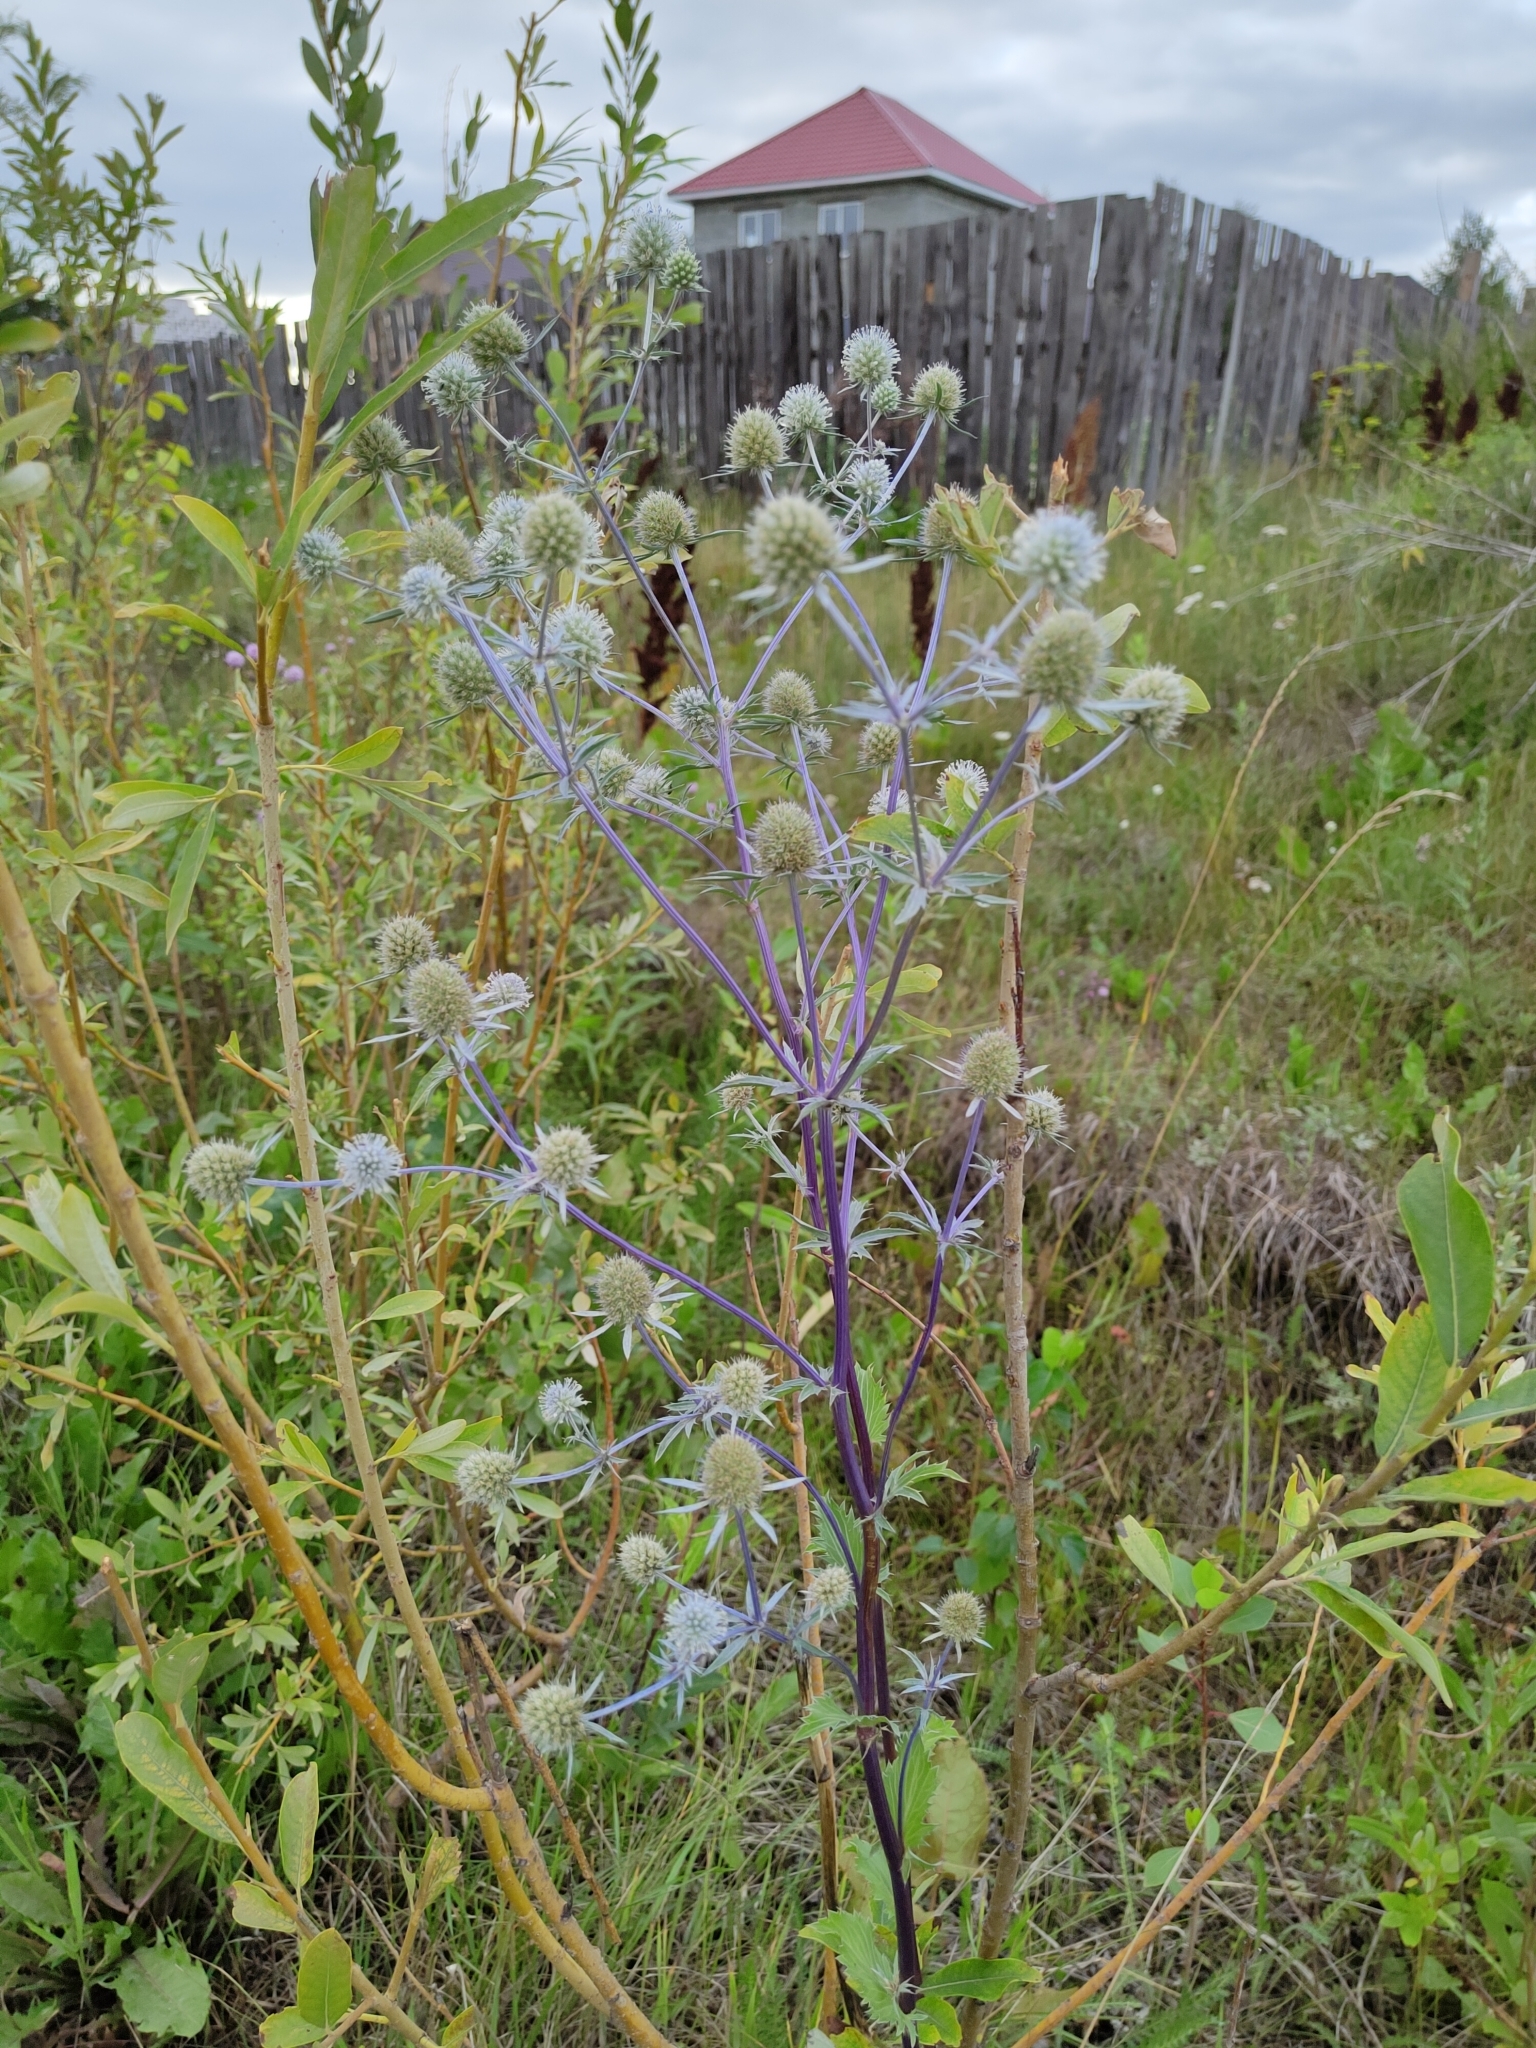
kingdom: Plantae
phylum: Tracheophyta
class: Magnoliopsida
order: Apiales
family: Apiaceae
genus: Eryngium
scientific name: Eryngium planum
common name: Blue eryngo
